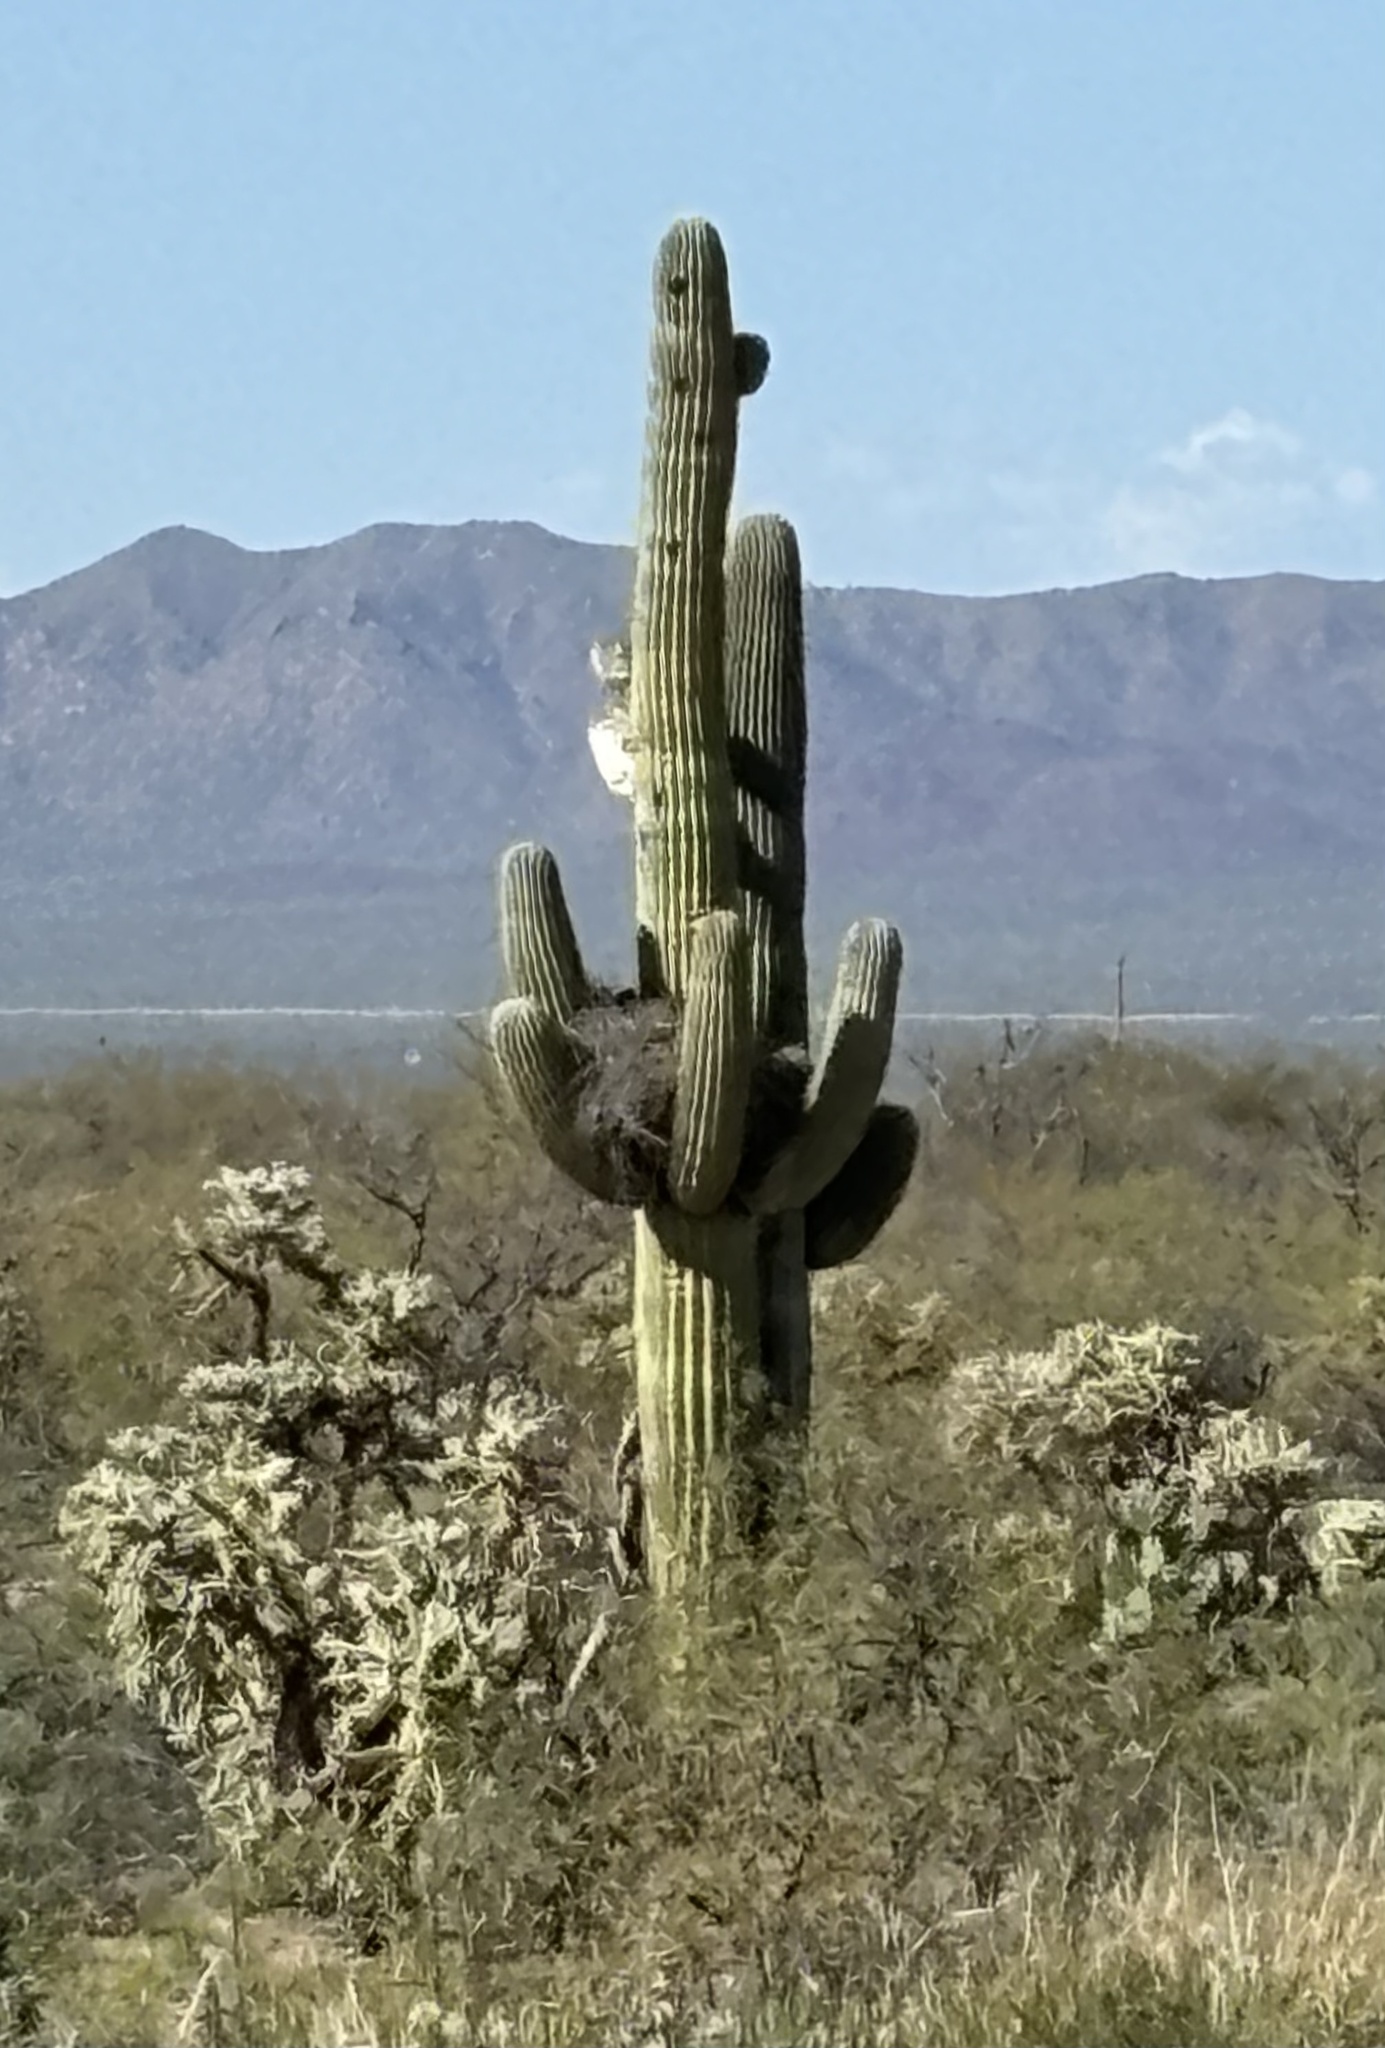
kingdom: Plantae
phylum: Tracheophyta
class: Magnoliopsida
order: Caryophyllales
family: Cactaceae
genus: Carnegiea
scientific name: Carnegiea gigantea
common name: Saguaro
